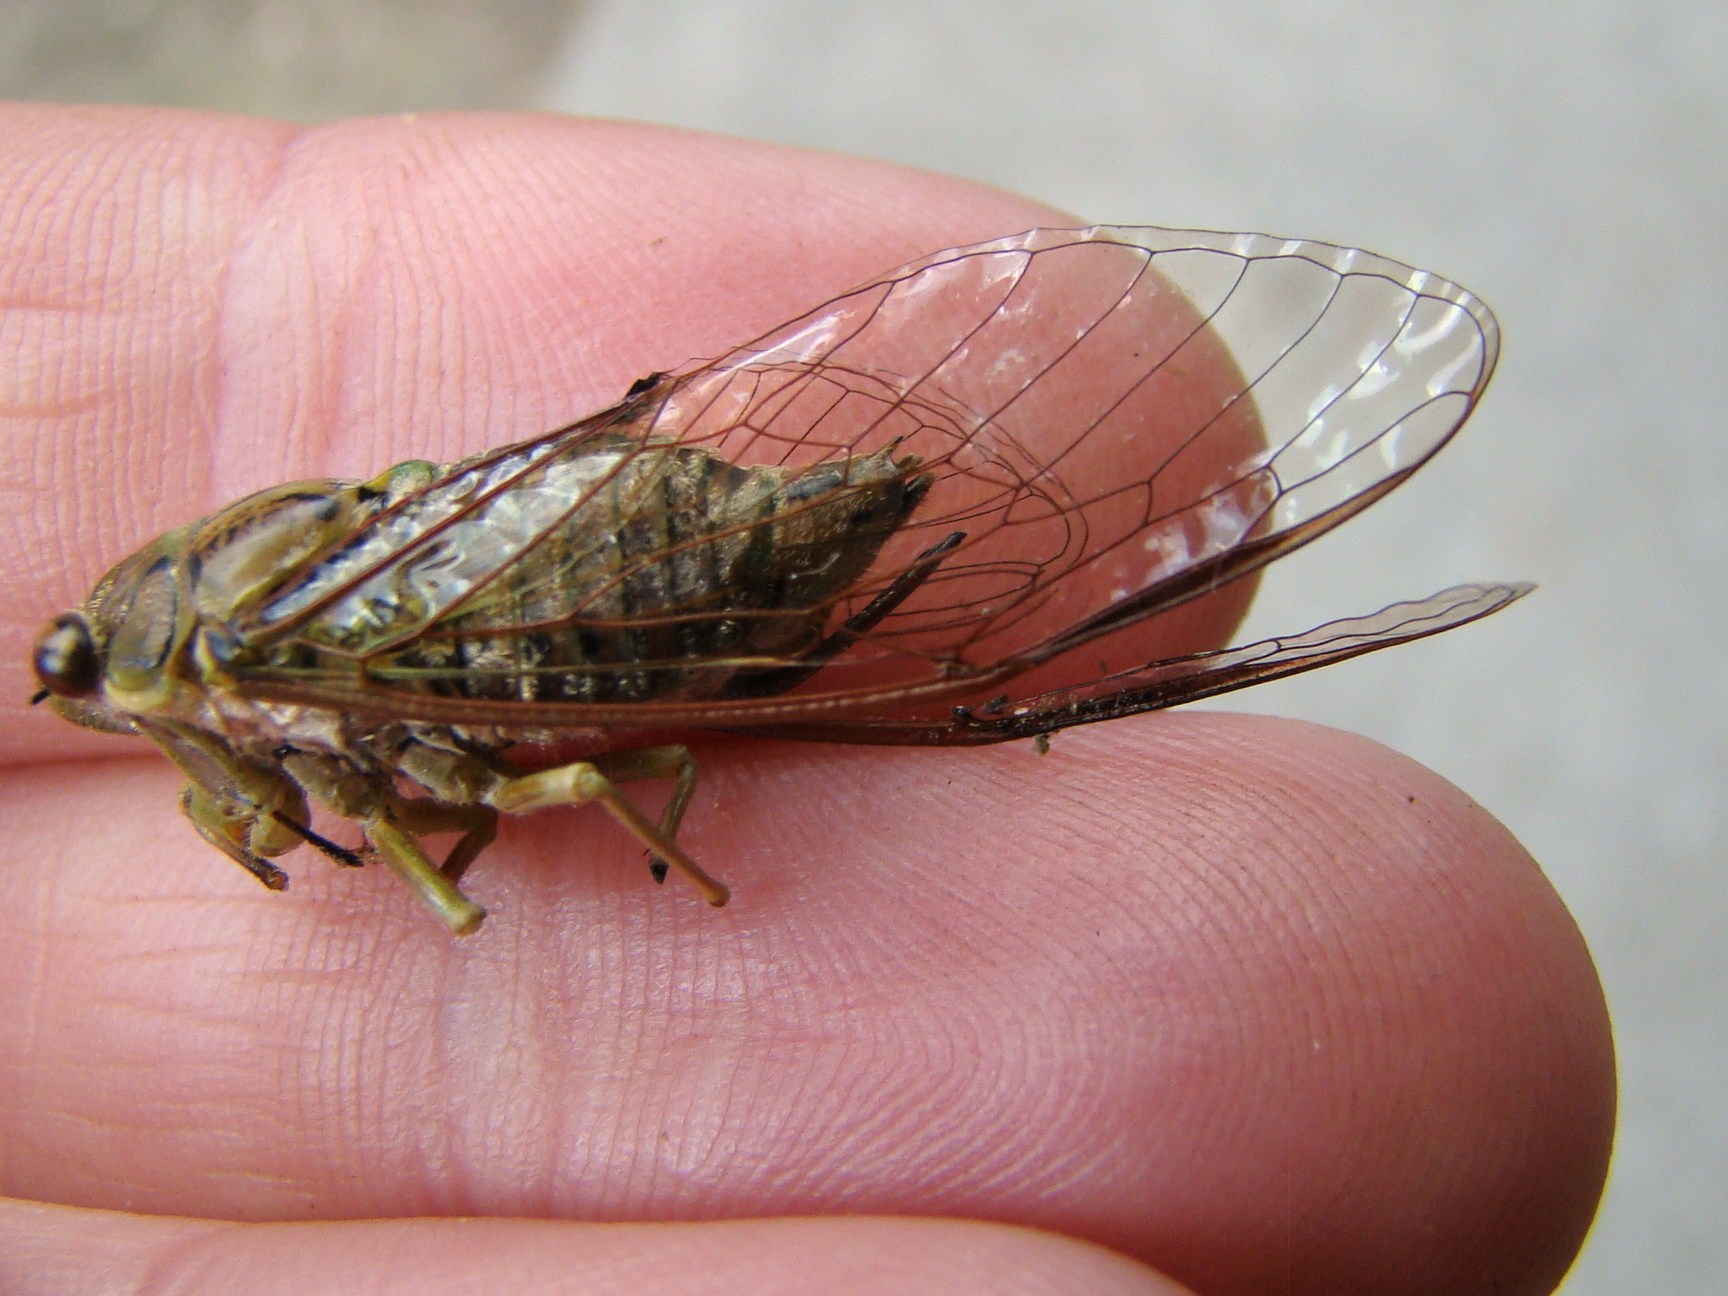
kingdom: Animalia
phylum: Arthropoda
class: Insecta
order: Hemiptera
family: Cicadidae
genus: Kikihia
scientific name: Kikihia scutellaris
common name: Lesser bronze cicada
